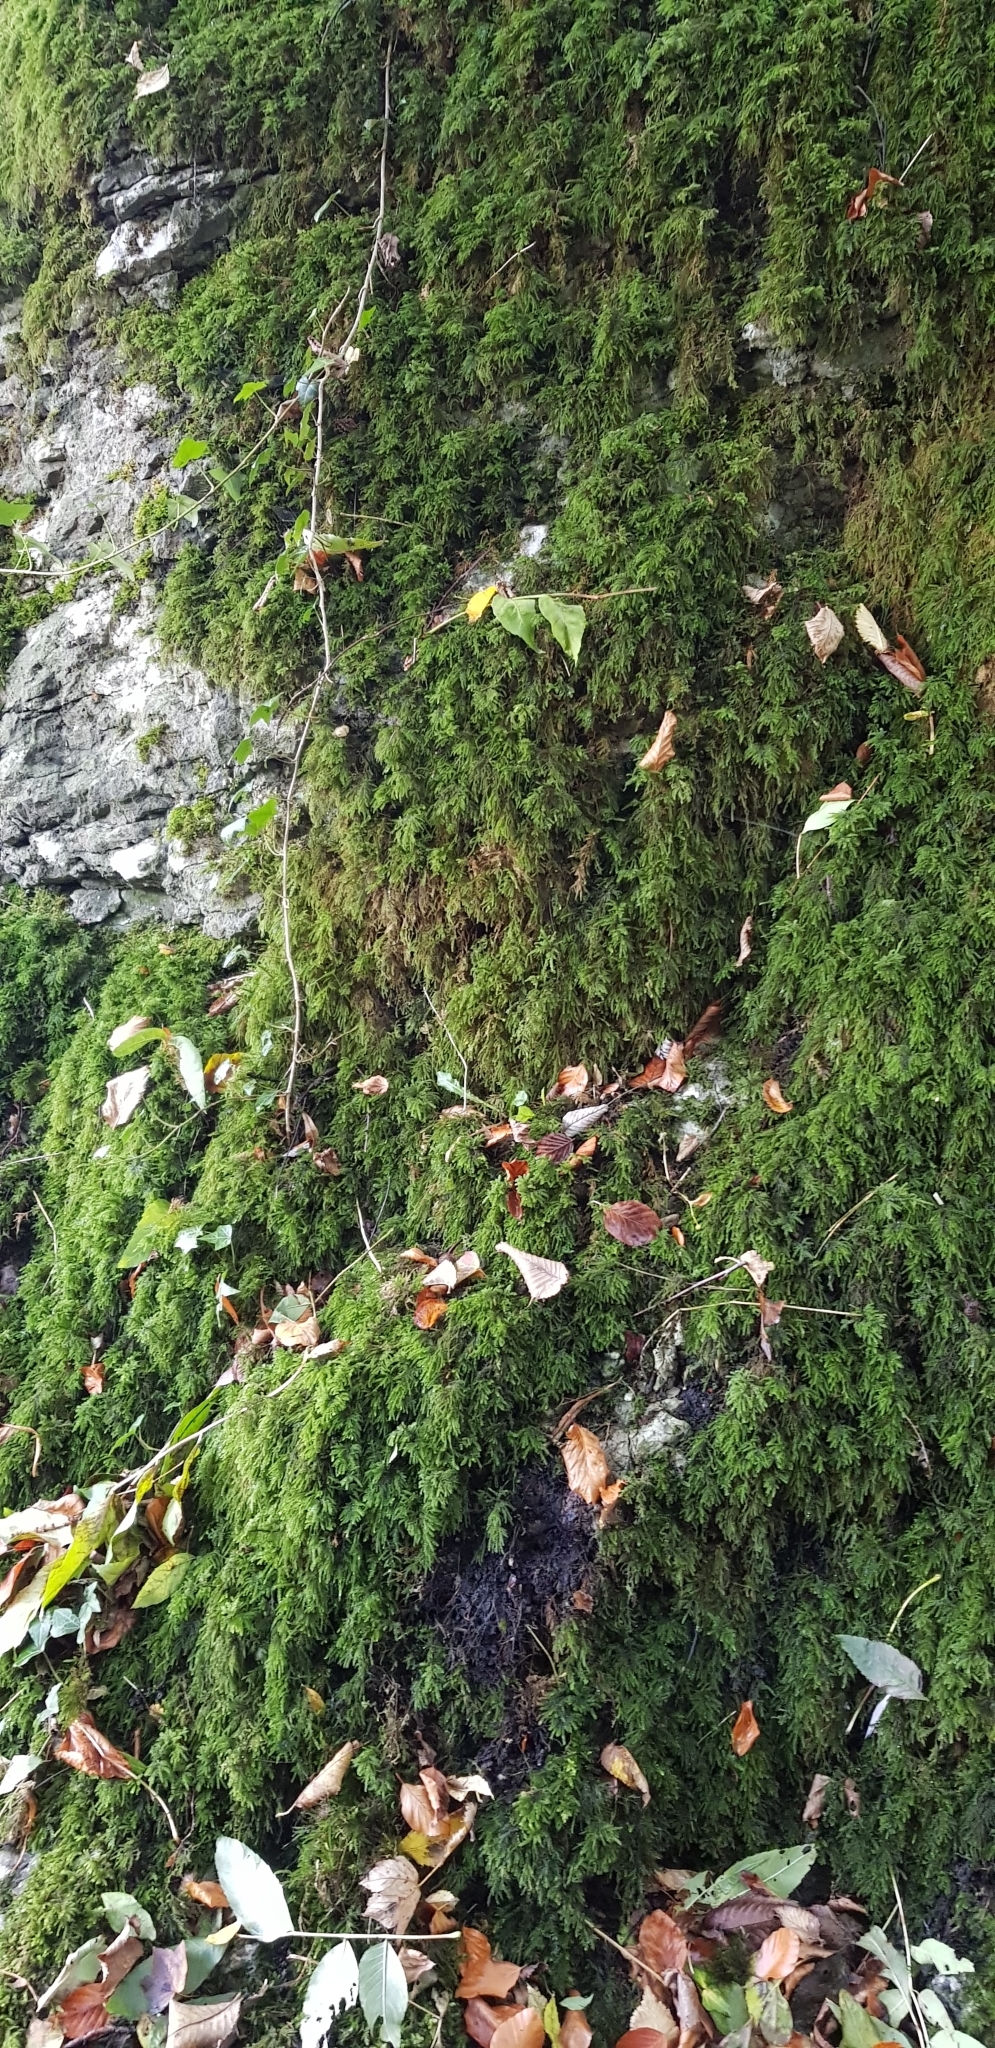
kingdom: Plantae
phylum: Bryophyta
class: Bryopsida
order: Hypnales
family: Neckeraceae
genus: Thamnobryum
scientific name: Thamnobryum alopecurum
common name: Fox-tail feather-moss
